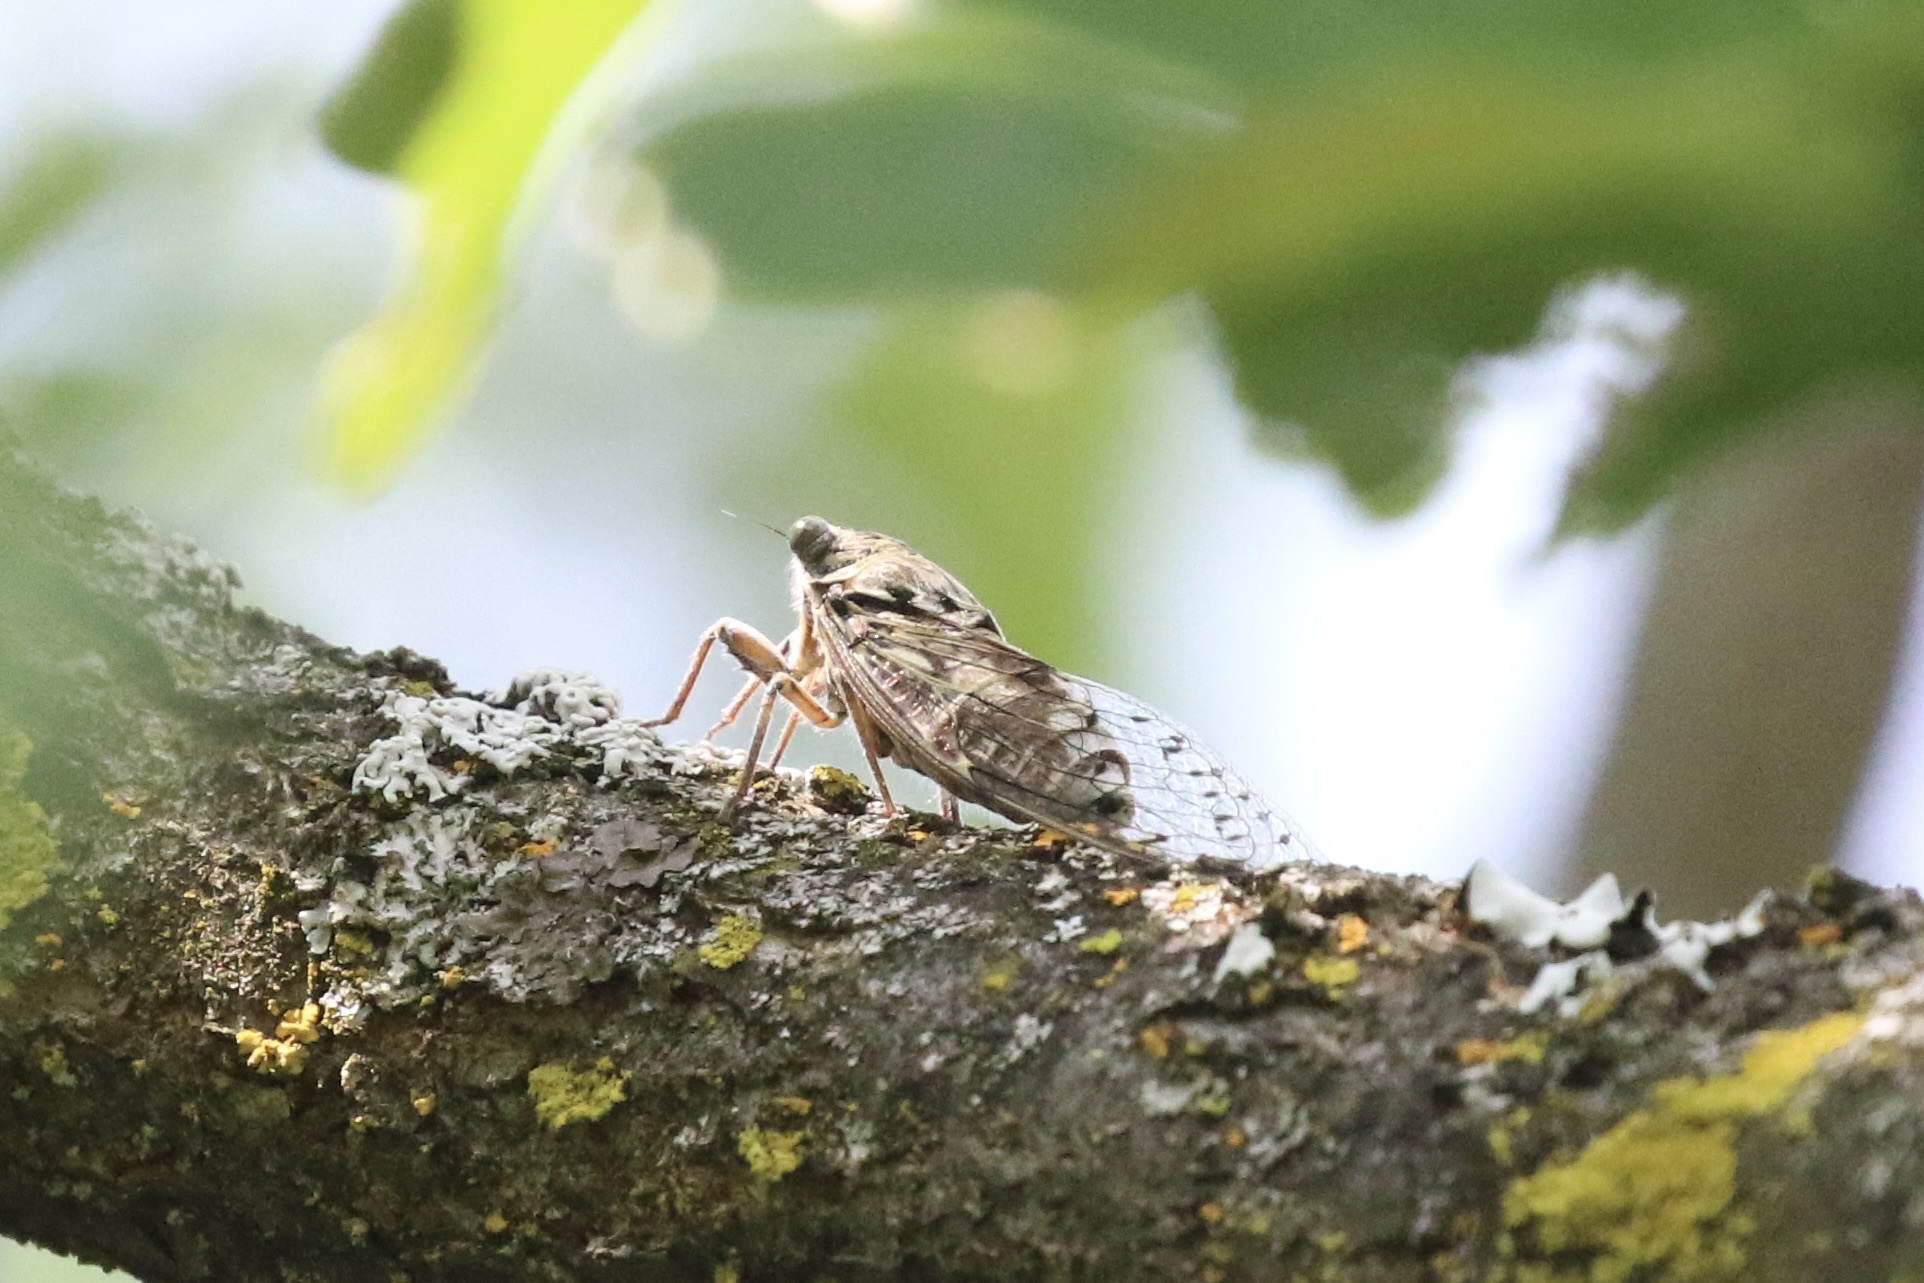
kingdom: Animalia
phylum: Arthropoda
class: Insecta
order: Hemiptera
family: Cicadidae
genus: Cicada
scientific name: Cicada orni
